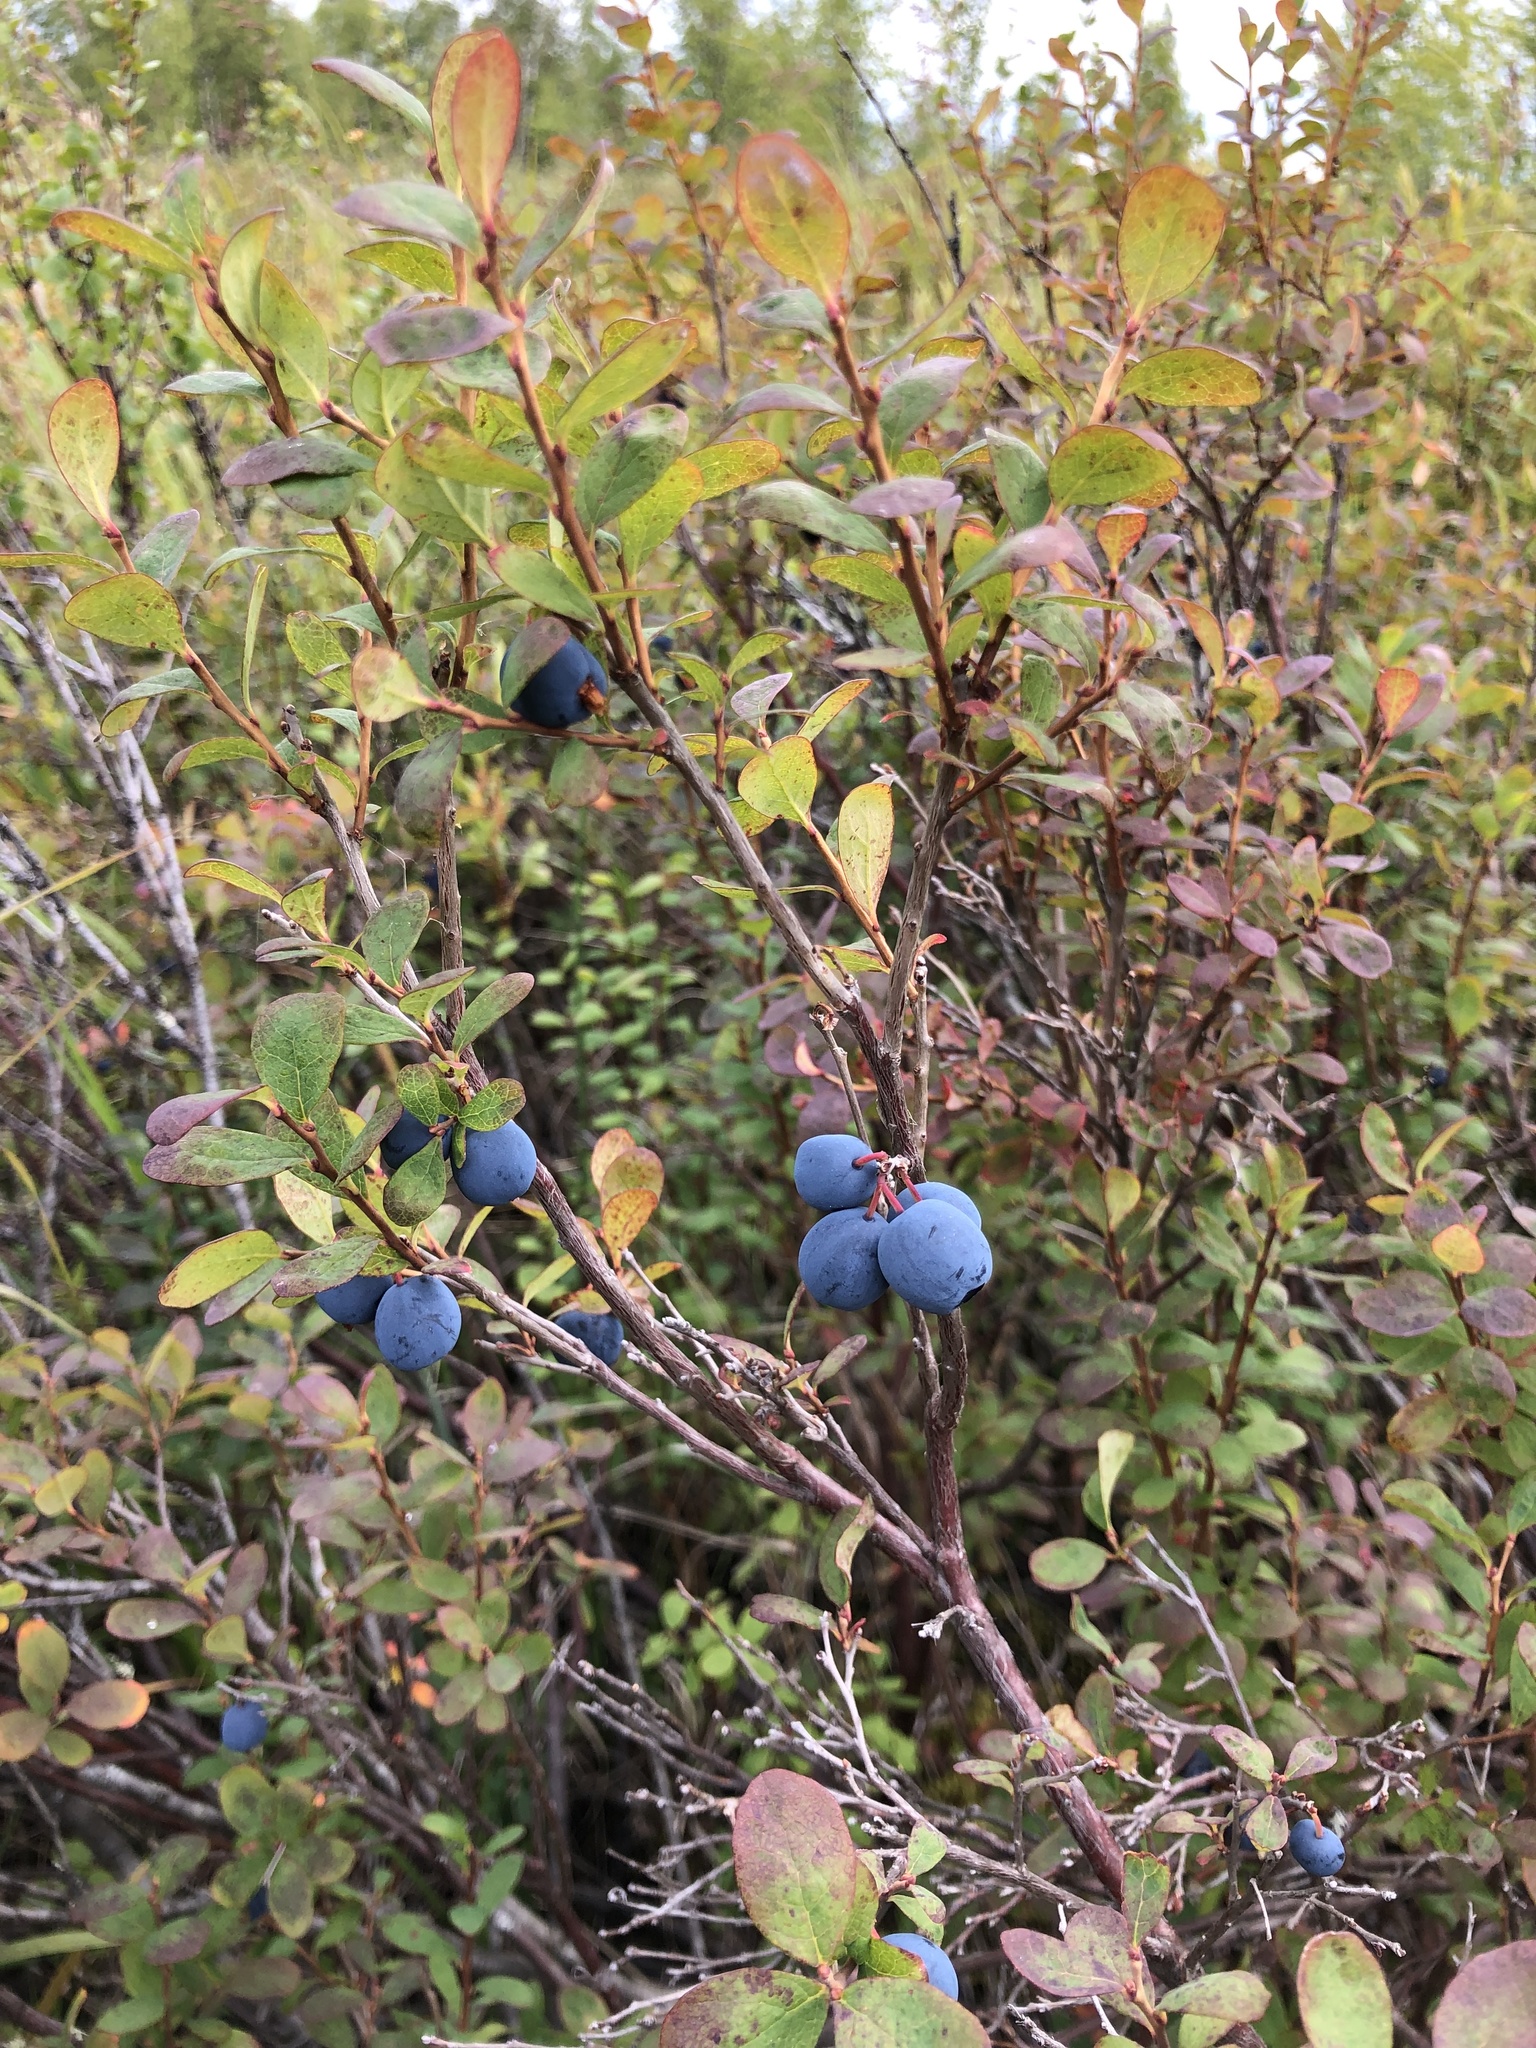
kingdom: Plantae
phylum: Tracheophyta
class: Magnoliopsida
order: Ericales
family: Ericaceae
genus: Vaccinium
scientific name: Vaccinium uliginosum
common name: Bog bilberry
